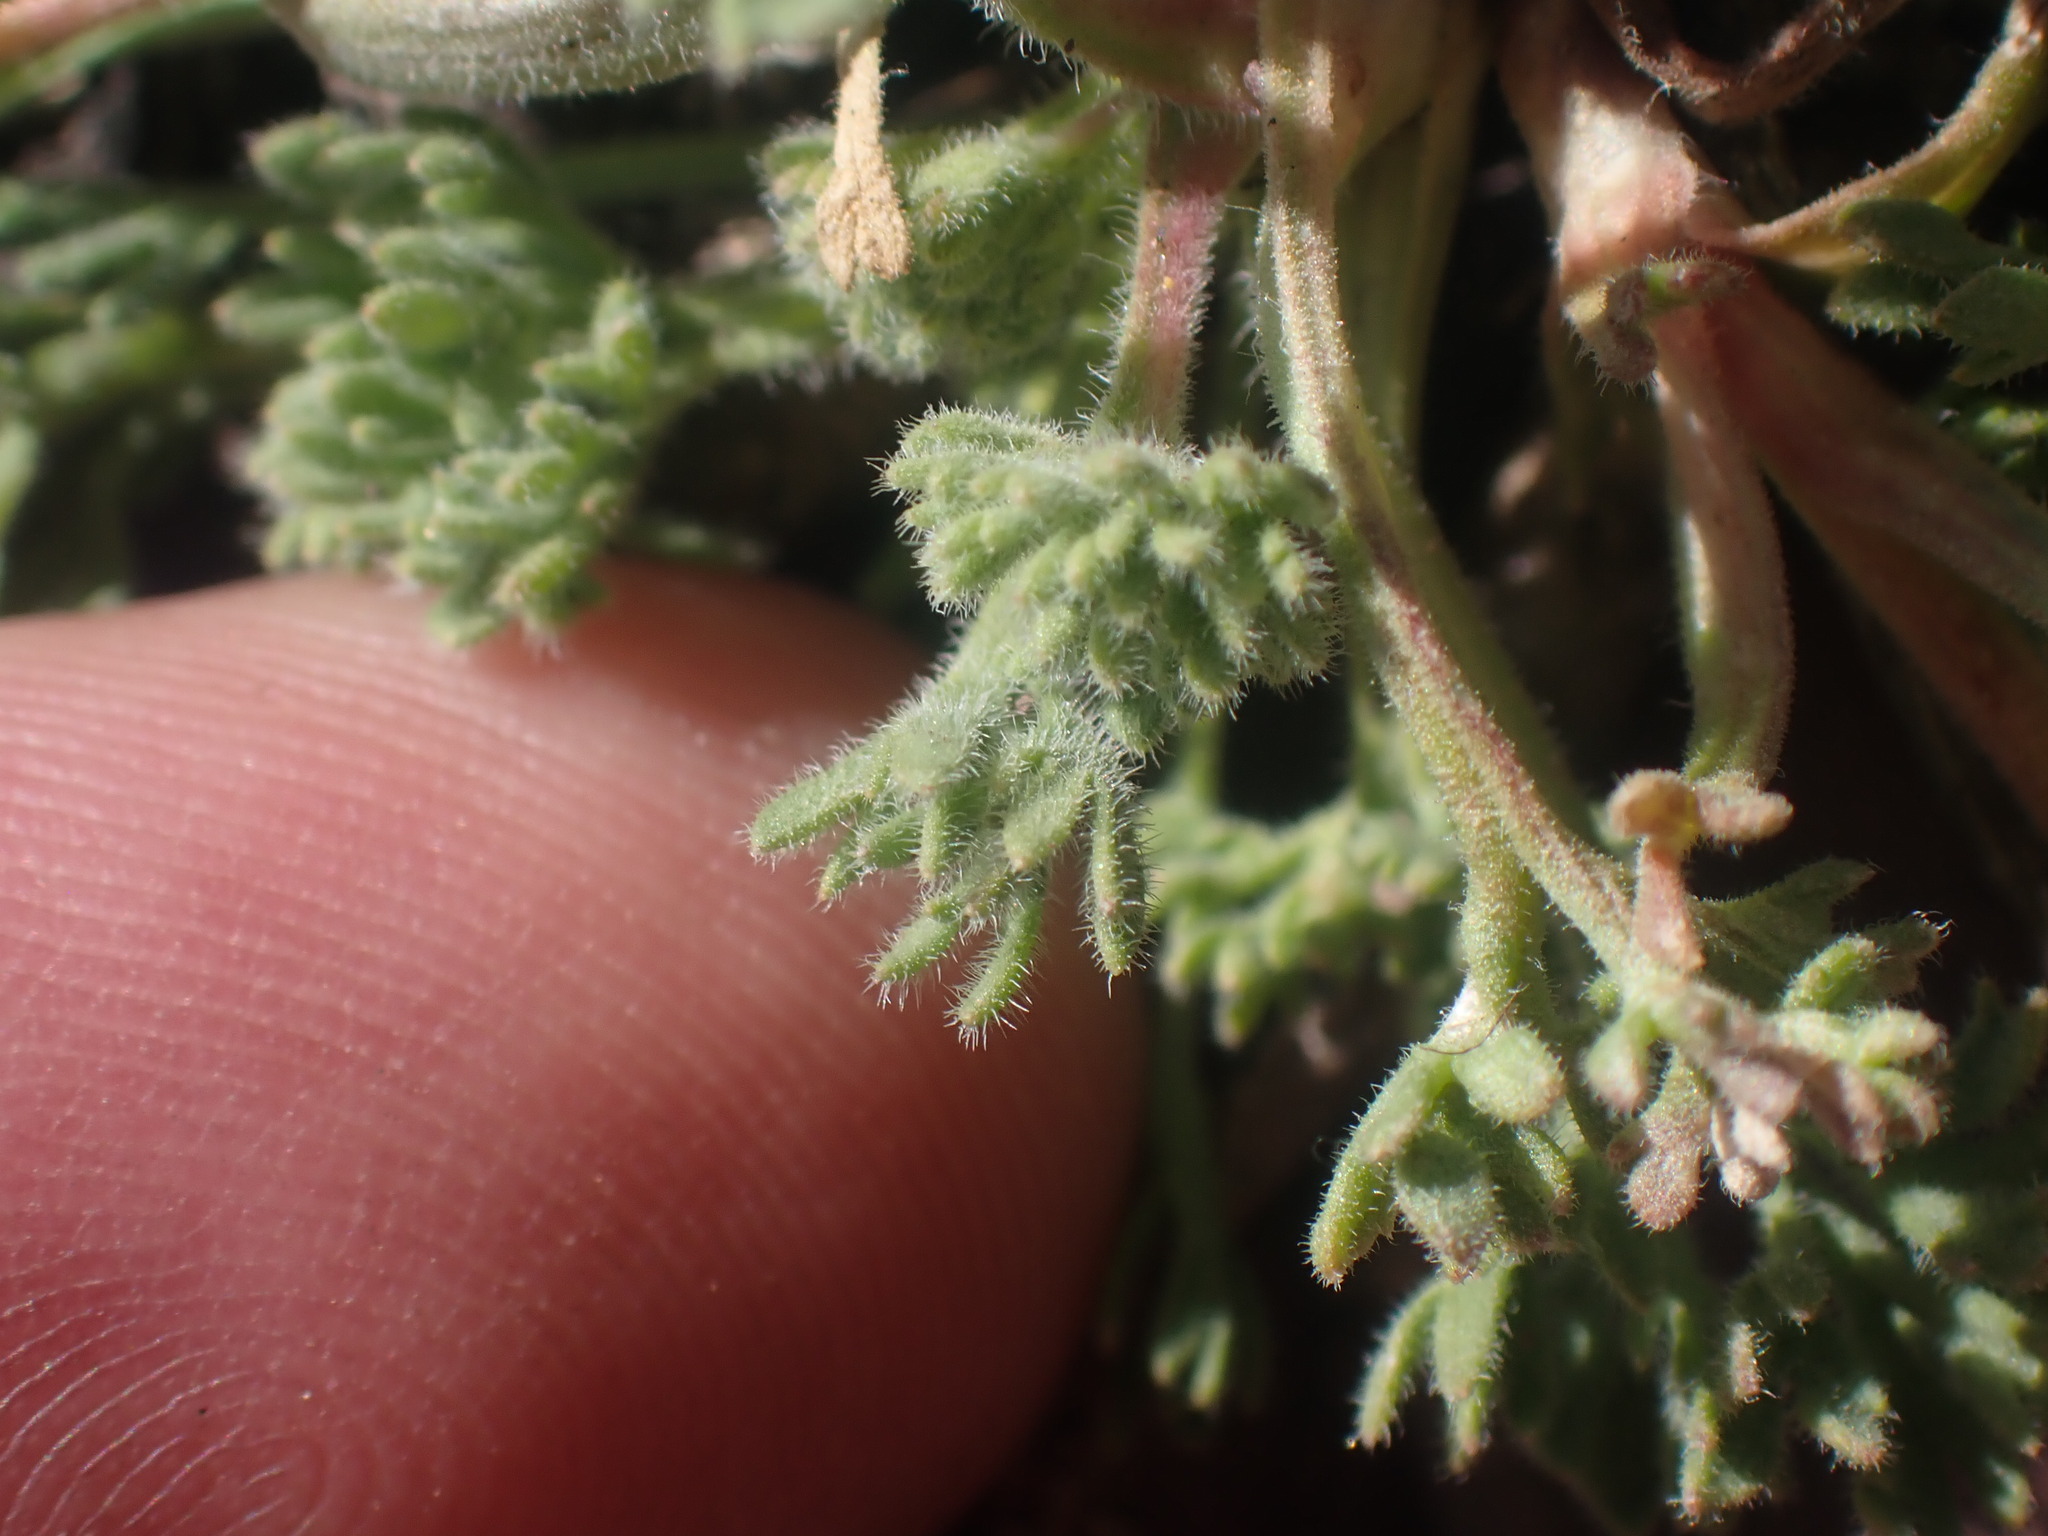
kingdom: Plantae
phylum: Tracheophyta
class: Magnoliopsida
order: Asterales
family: Asteraceae
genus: Erigeron
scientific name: Erigeron compositus
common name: Dwarf mountain fleabane
